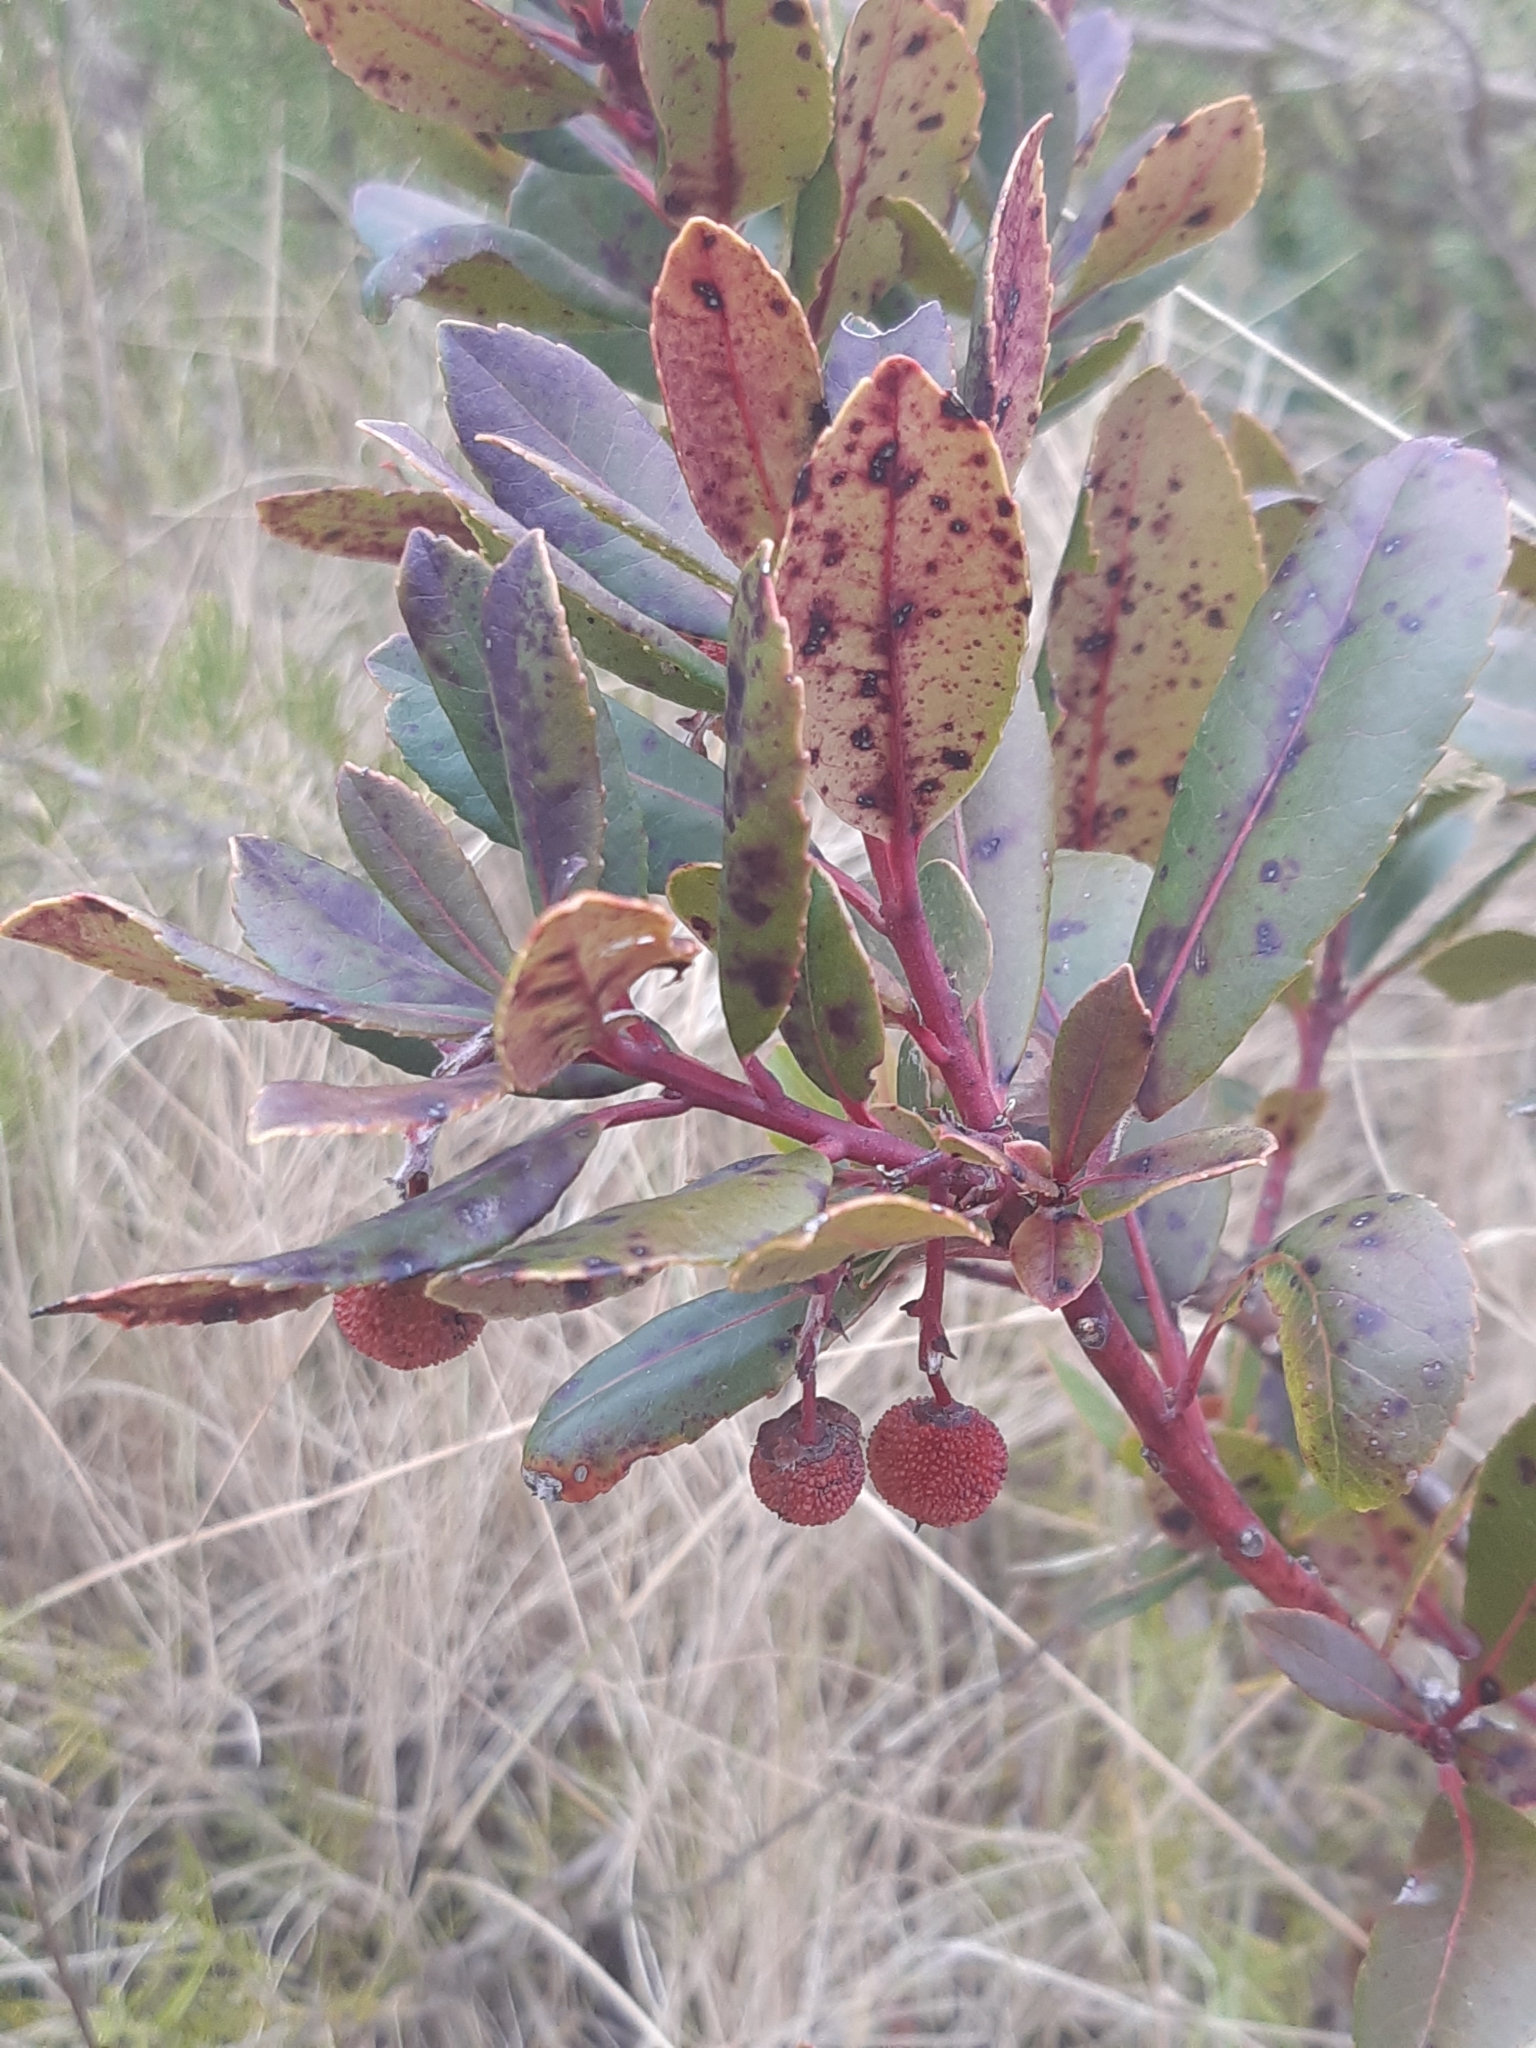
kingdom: Plantae
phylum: Tracheophyta
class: Magnoliopsida
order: Ericales
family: Ericaceae
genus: Arbutus
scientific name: Arbutus unedo
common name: Strawberry-tree
